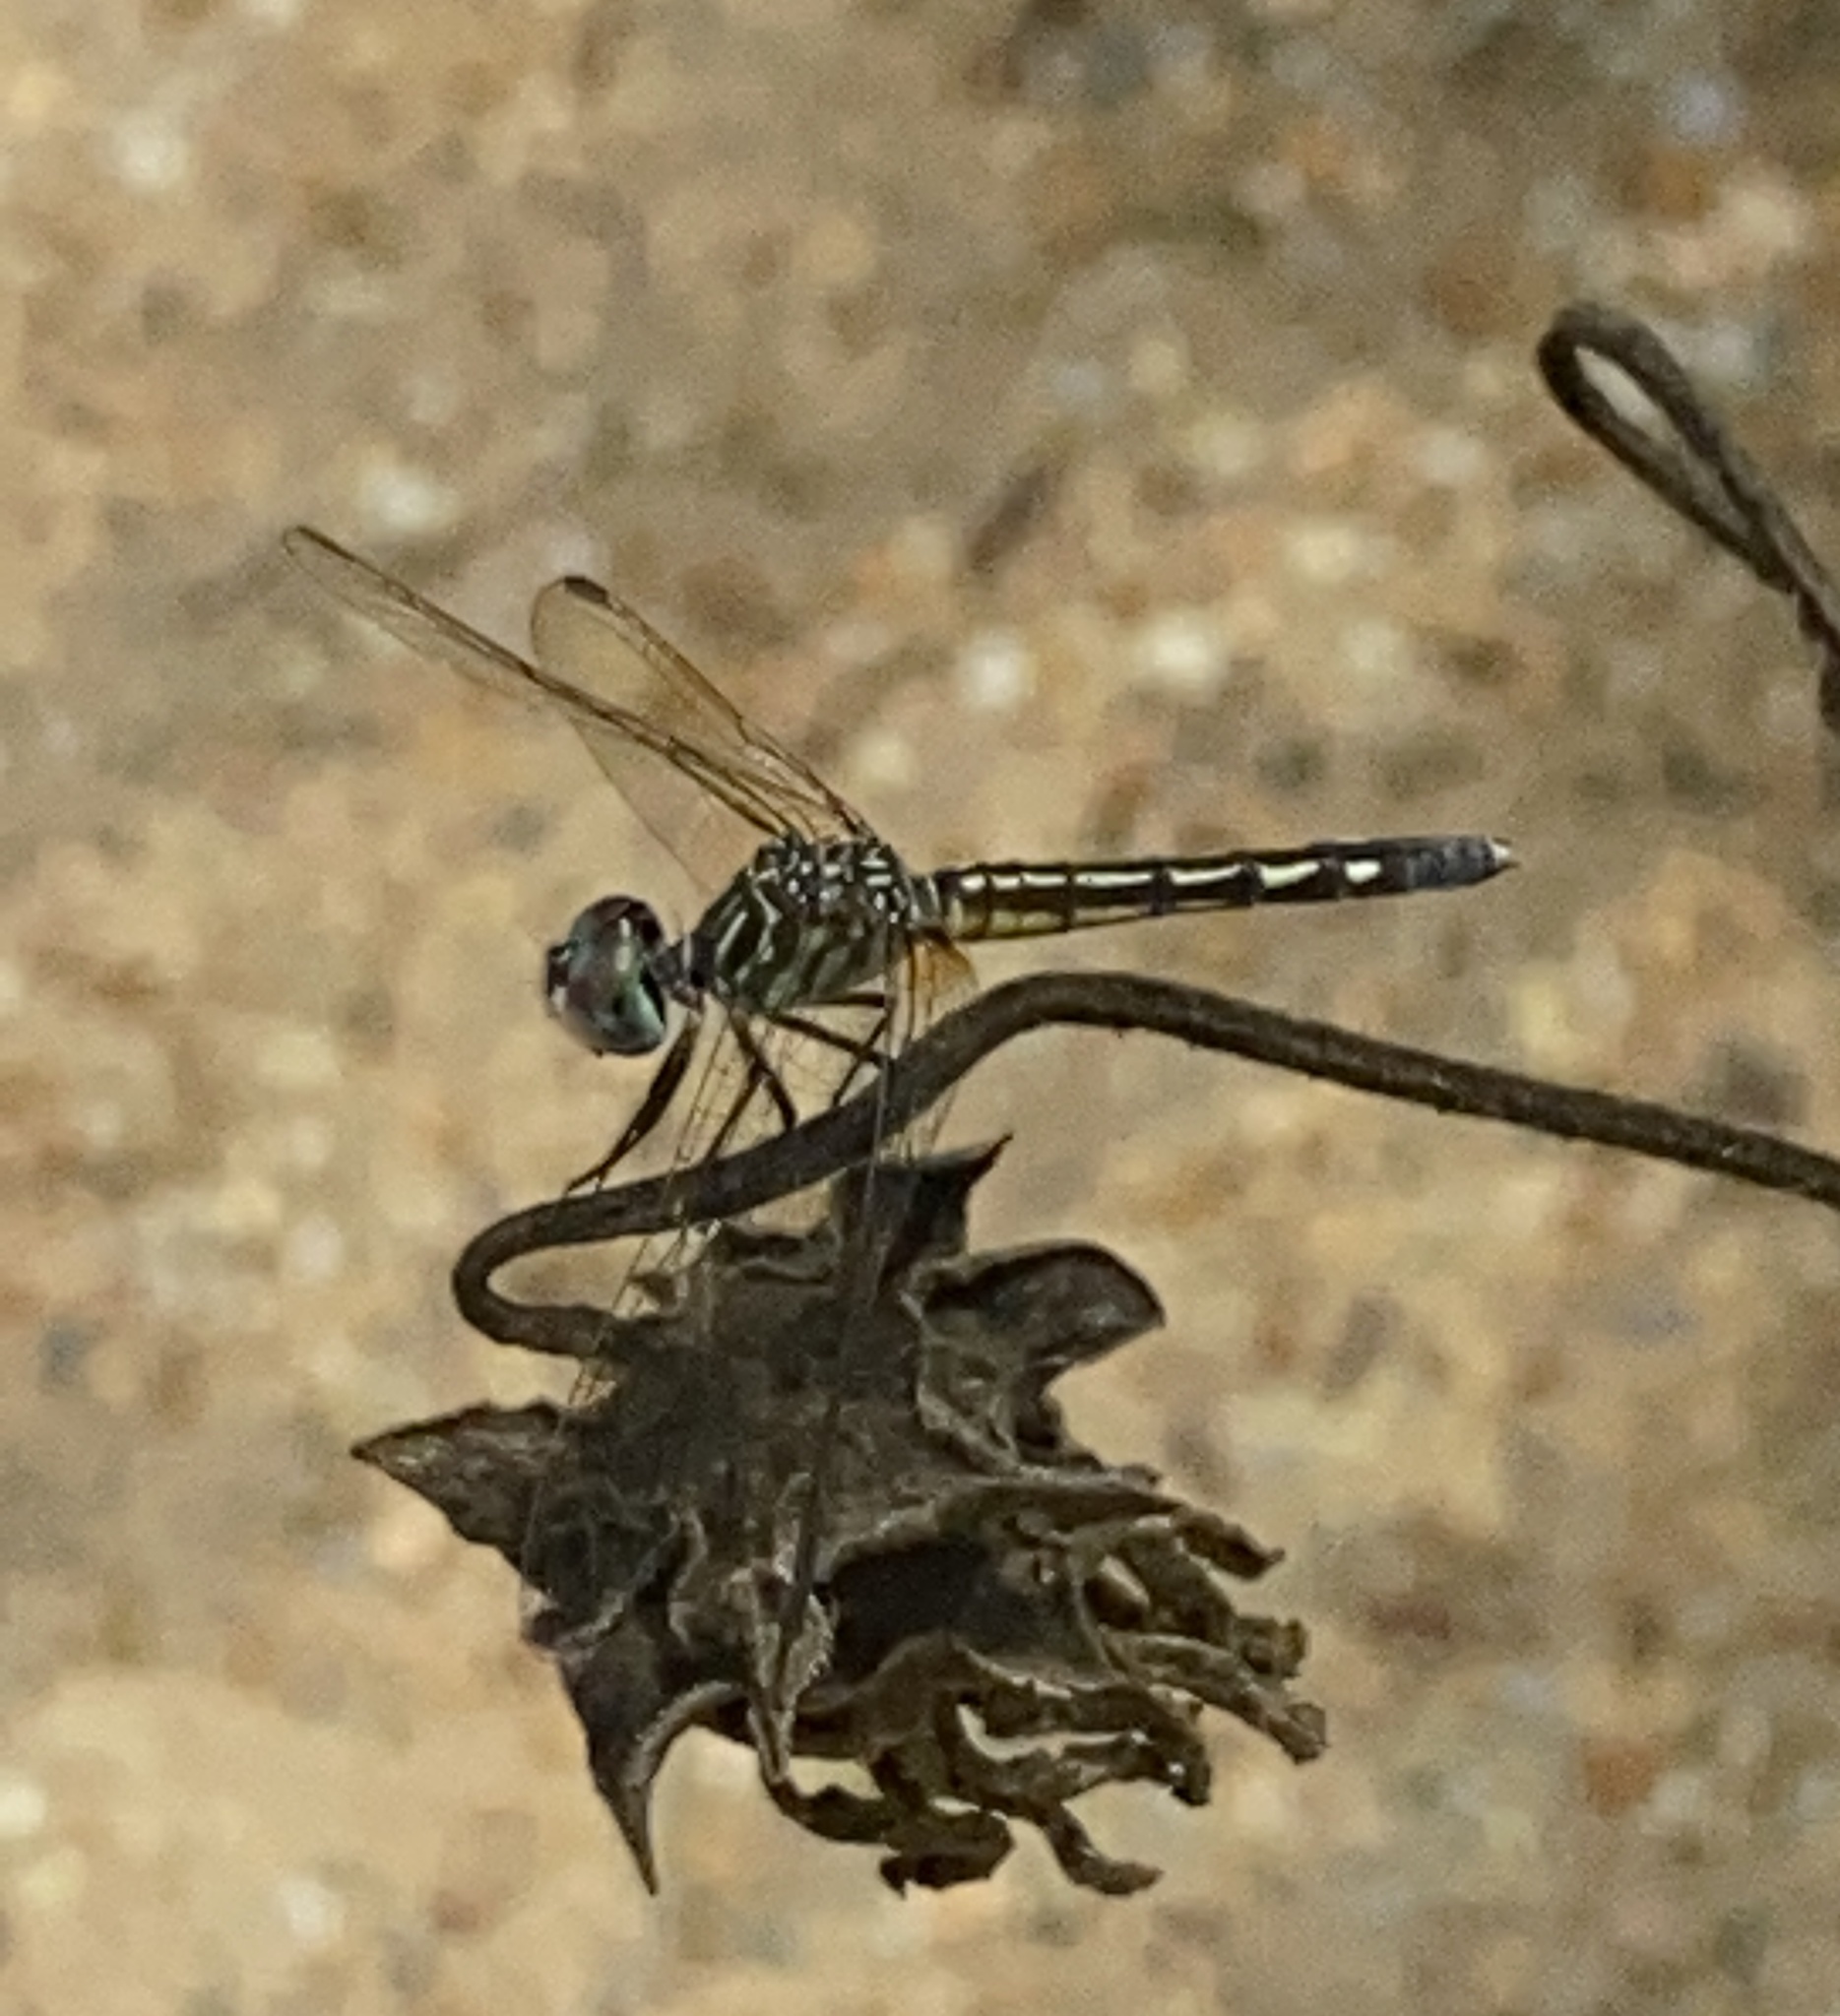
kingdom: Animalia
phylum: Arthropoda
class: Insecta
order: Odonata
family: Libellulidae
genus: Pachydiplax
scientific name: Pachydiplax longipennis
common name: Blue dasher
